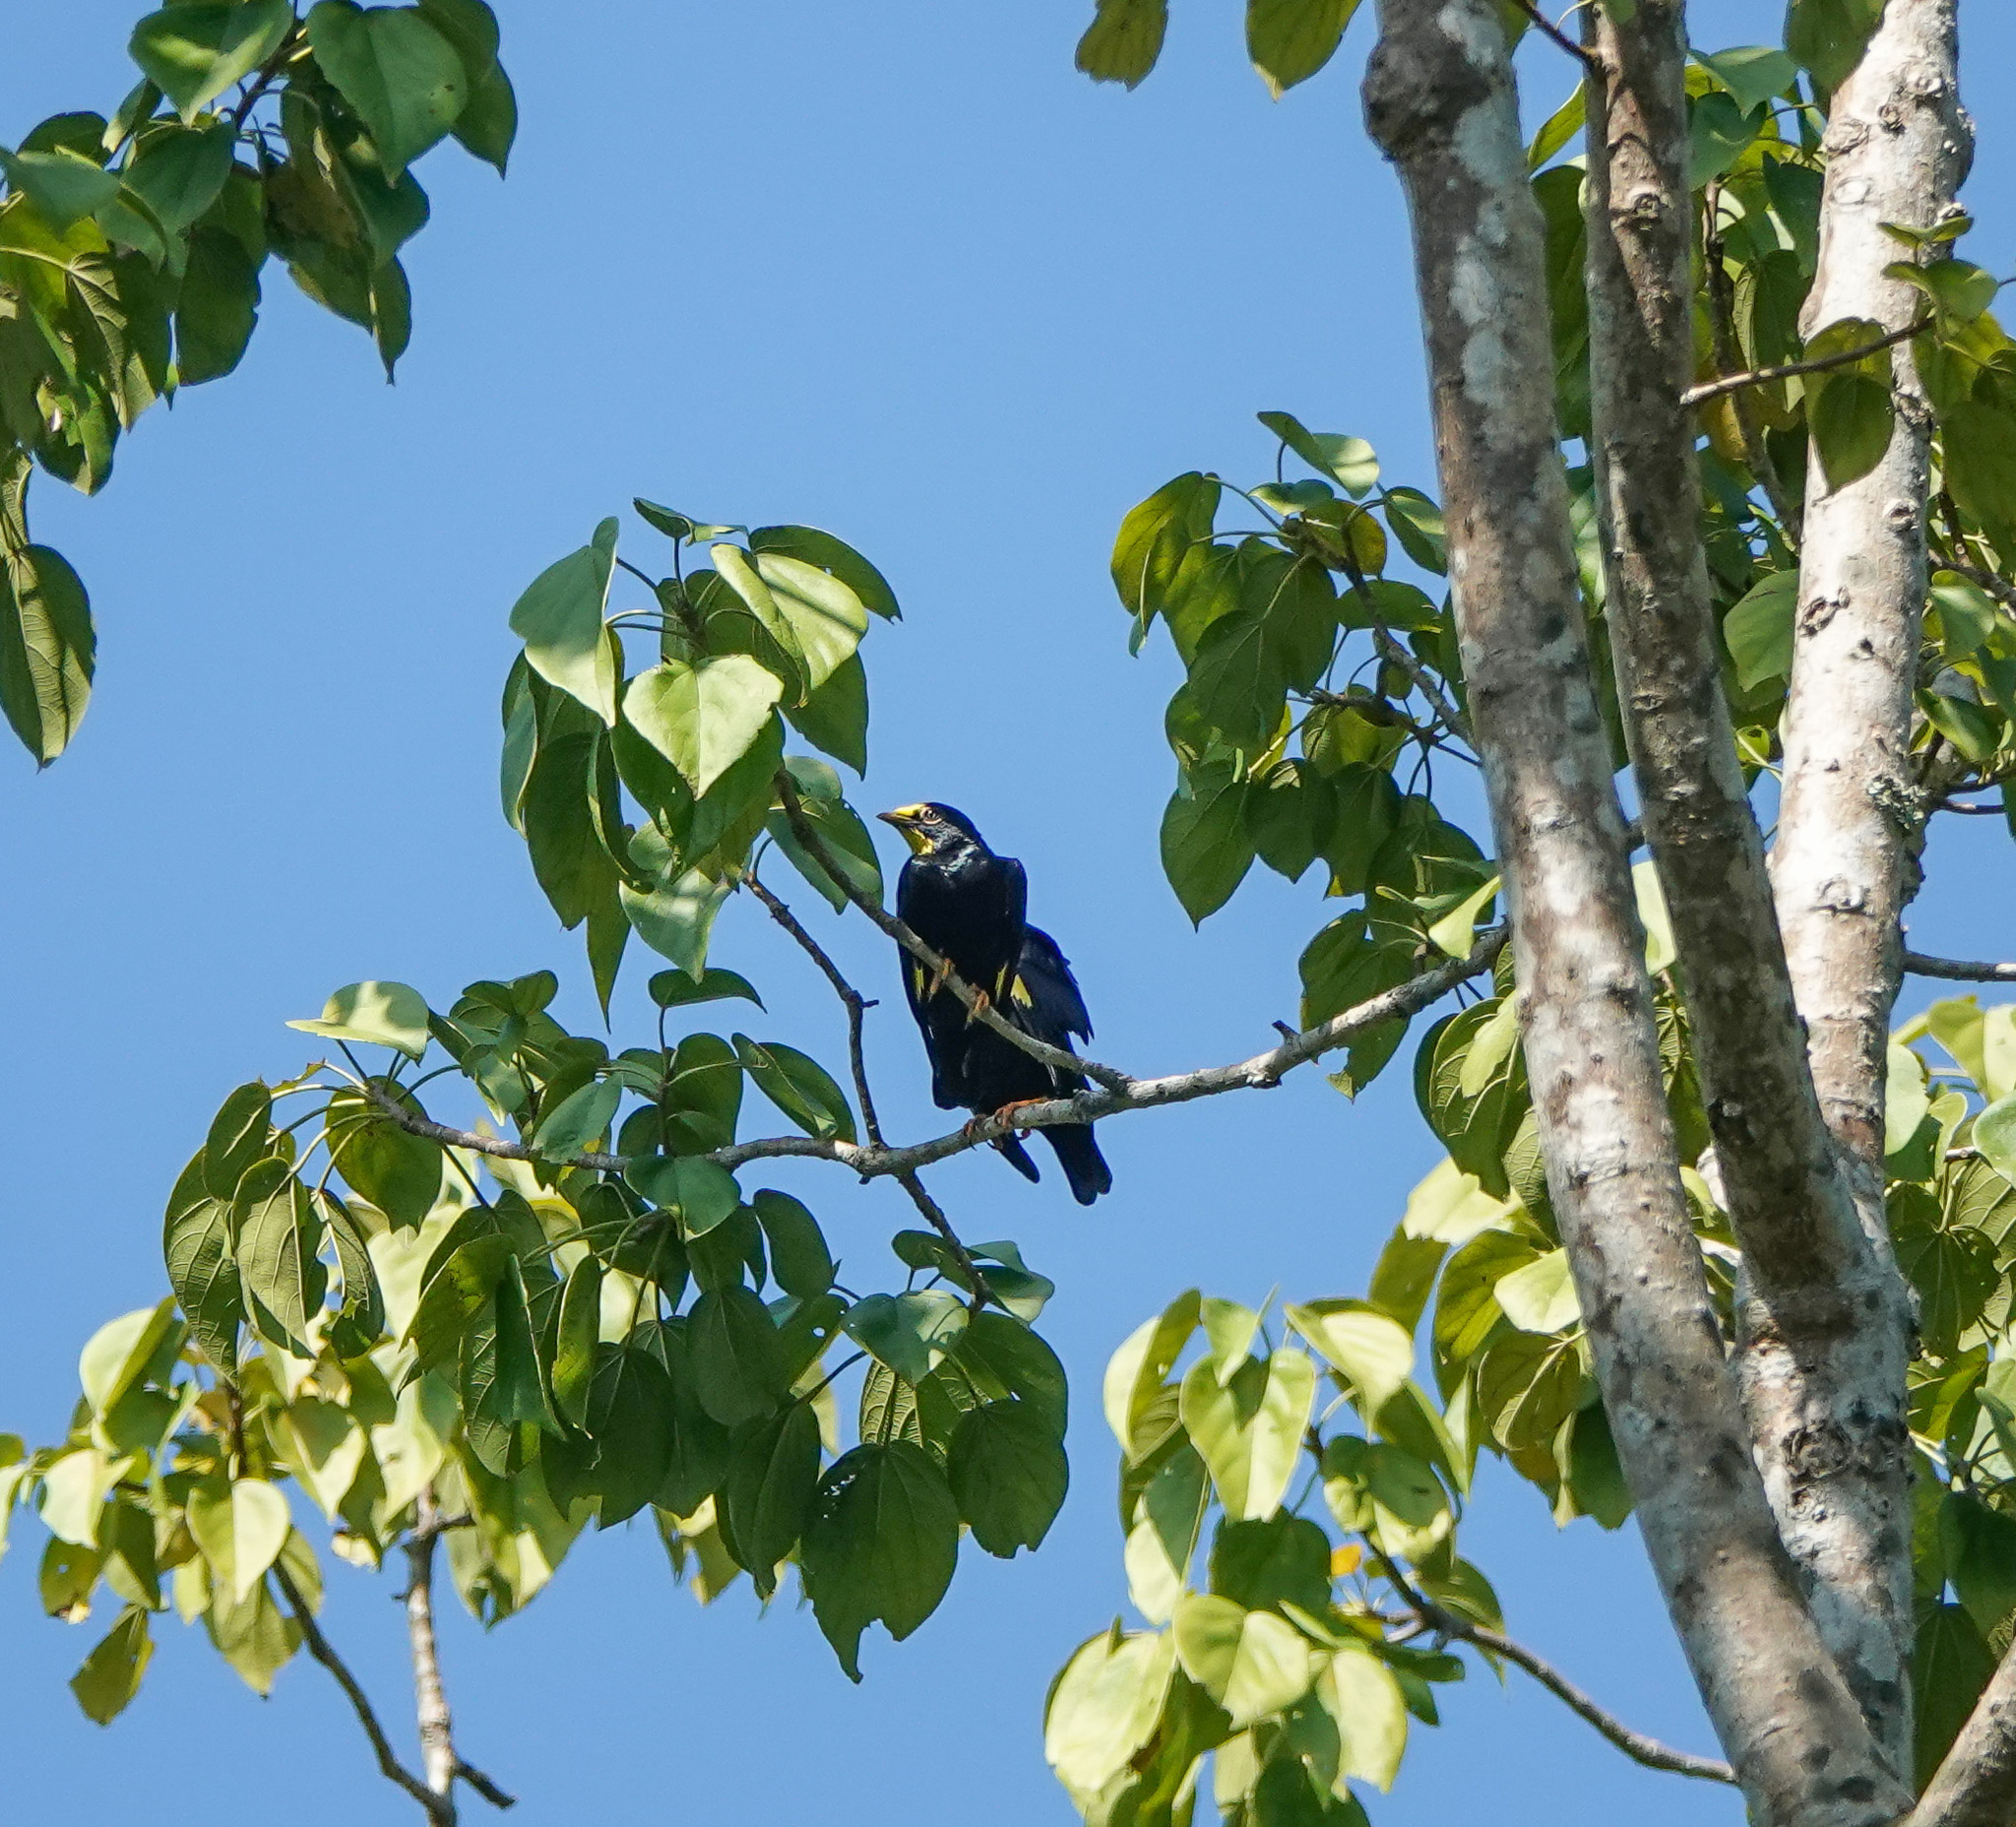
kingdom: Animalia
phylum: Chordata
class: Aves
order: Passeriformes
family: Sturnidae
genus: Ampeliceps
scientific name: Ampeliceps coronatus
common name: Golden-crested myna
